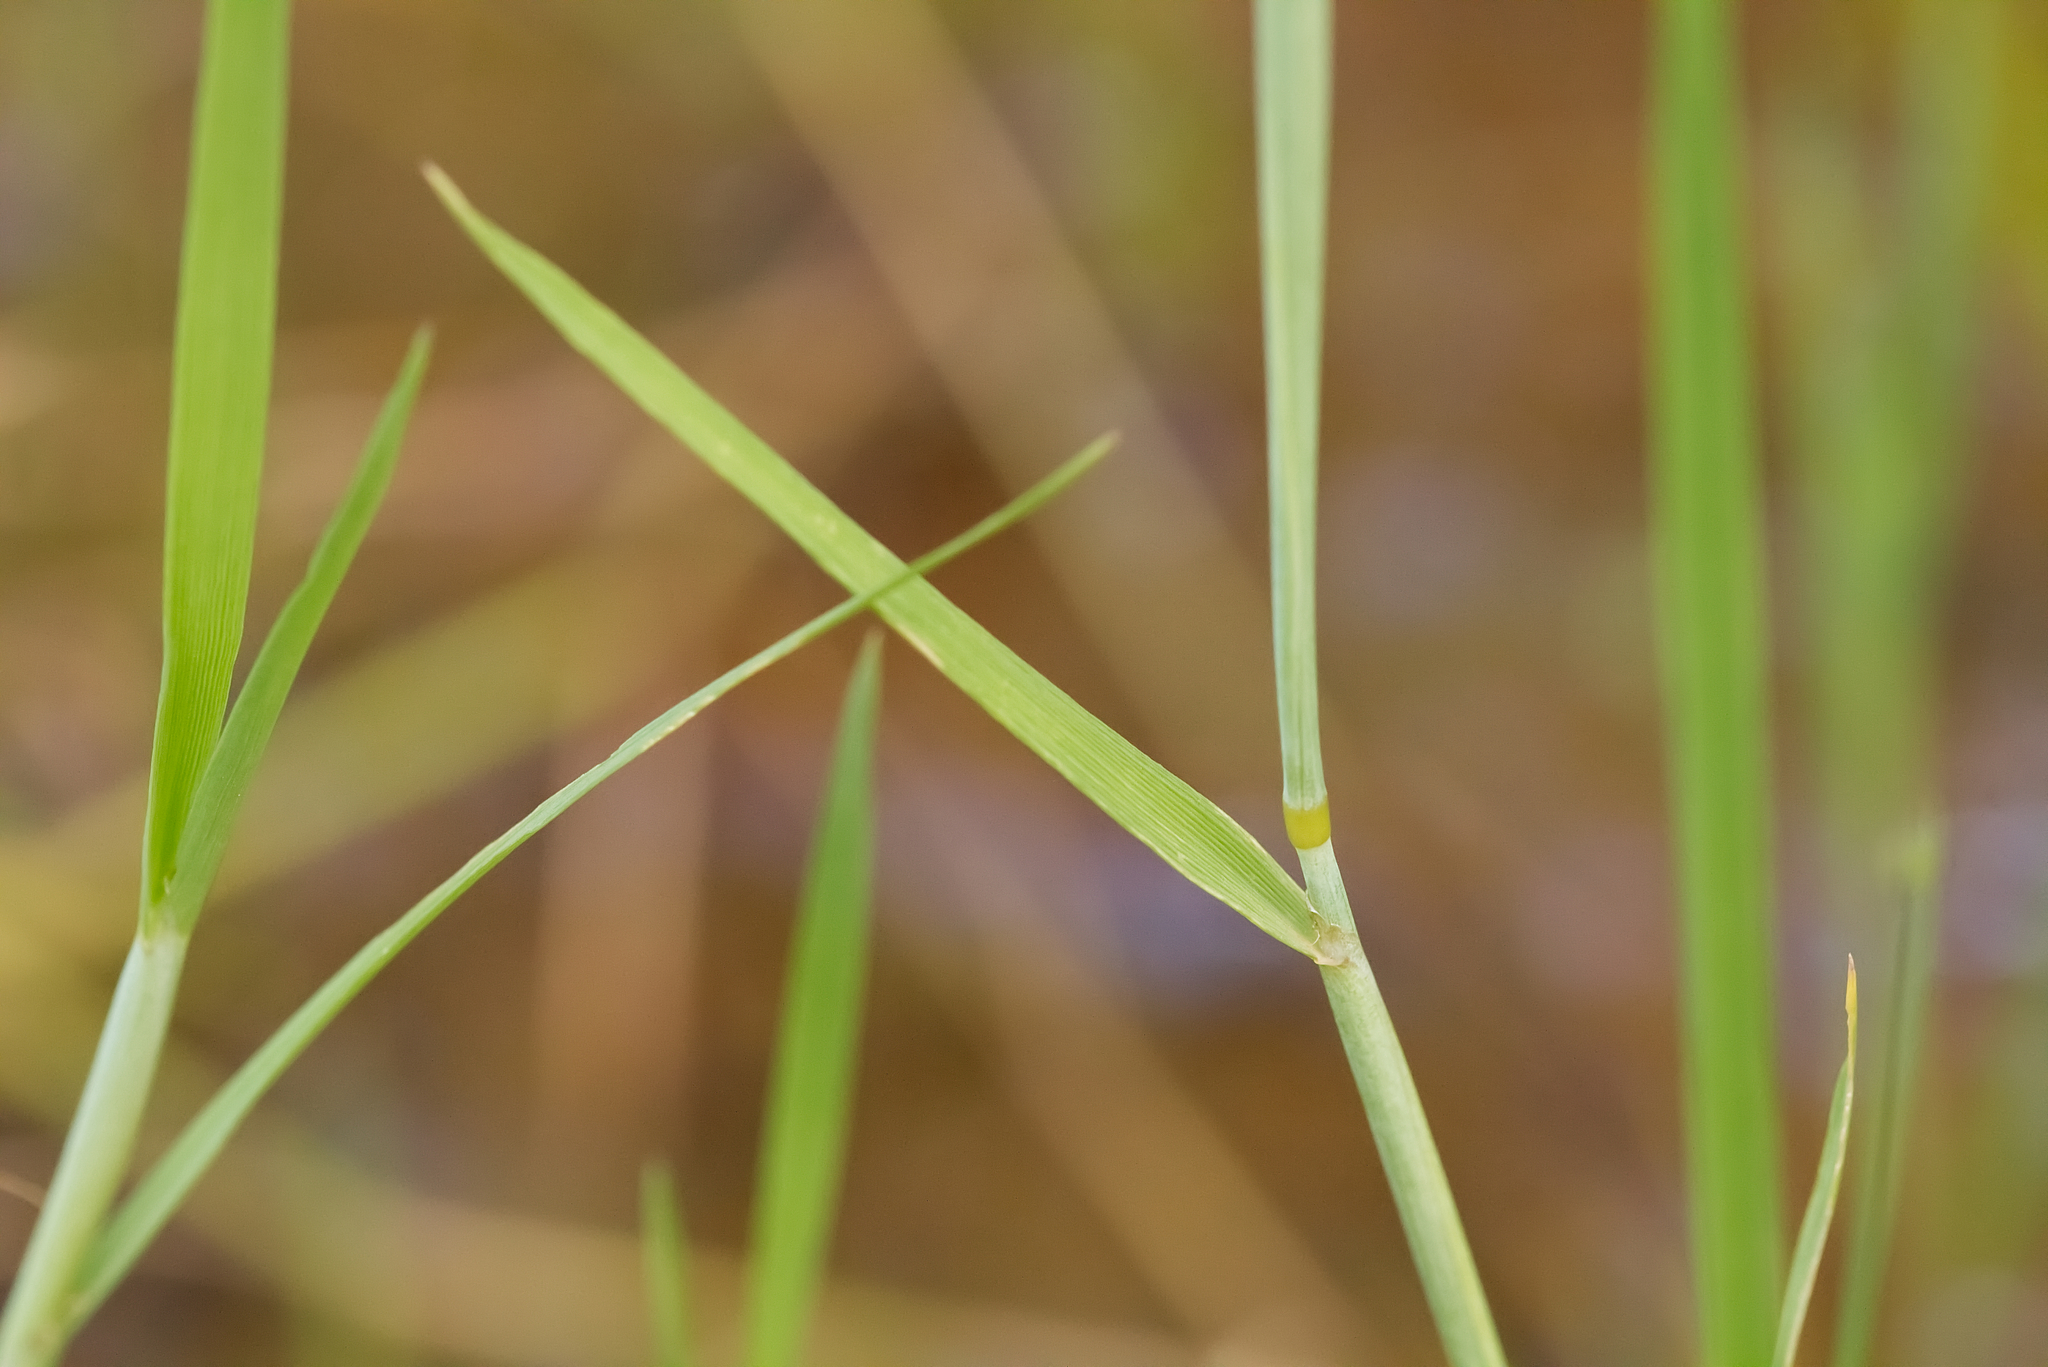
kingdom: Plantae
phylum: Tracheophyta
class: Liliopsida
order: Poales
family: Poaceae
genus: Alopecurus
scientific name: Alopecurus aequalis
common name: Orange foxtail
